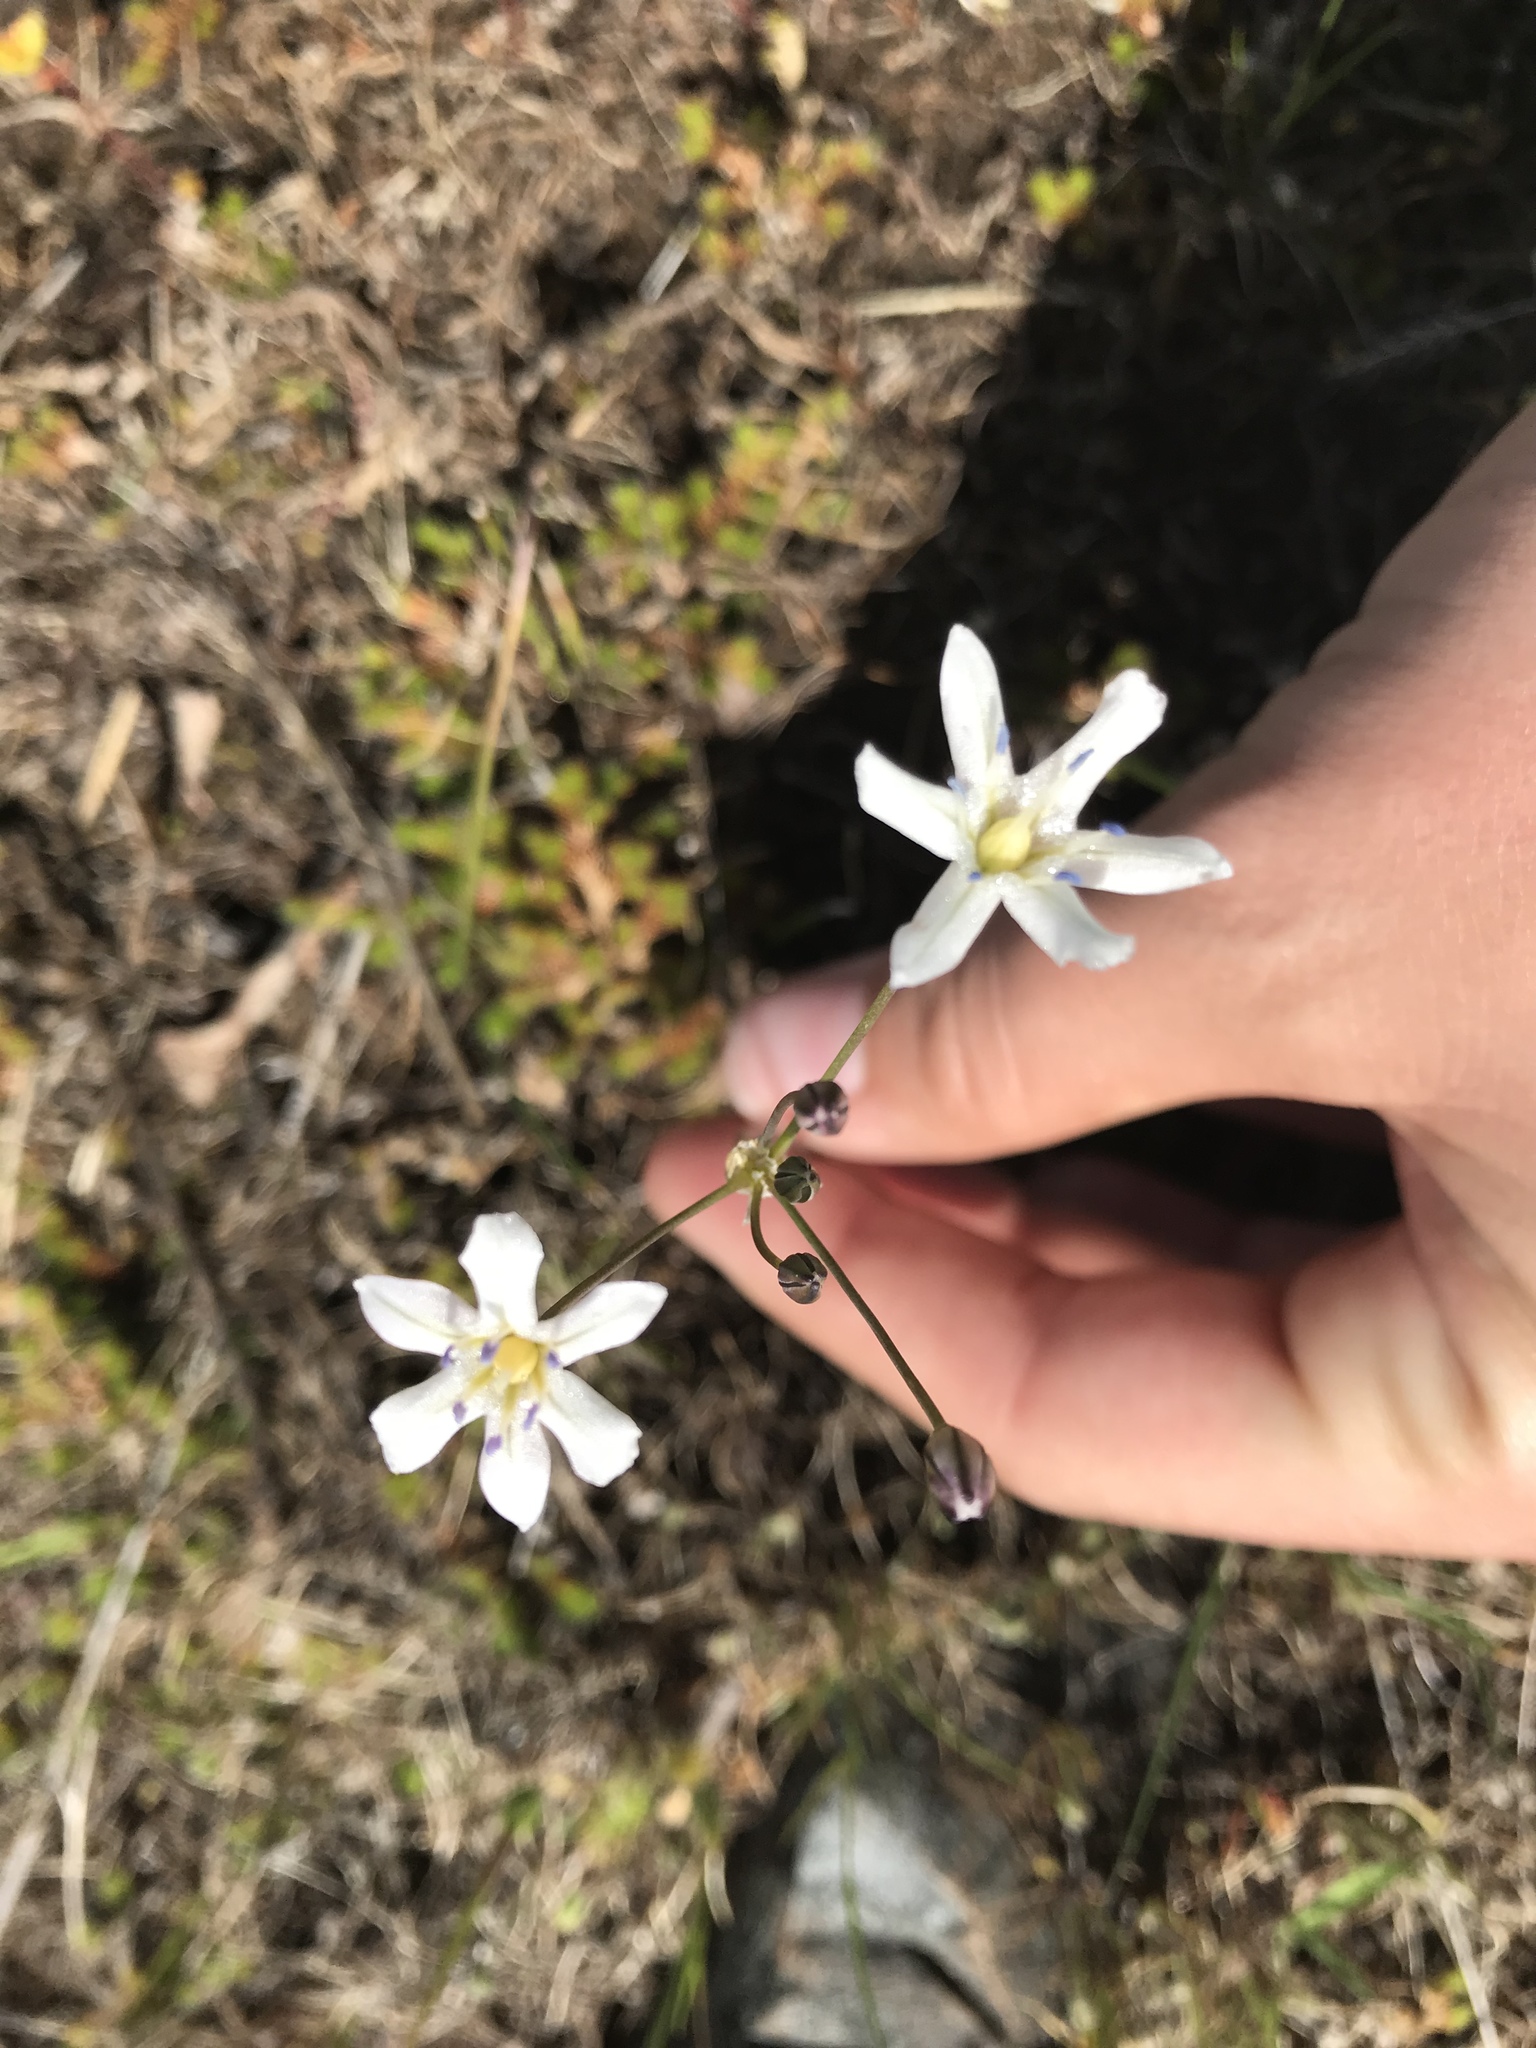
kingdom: Plantae
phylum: Tracheophyta
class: Liliopsida
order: Asparagales
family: Asparagaceae
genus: Triteleia
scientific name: Triteleia lilacina
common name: Lilac-flower wild hyacinth
